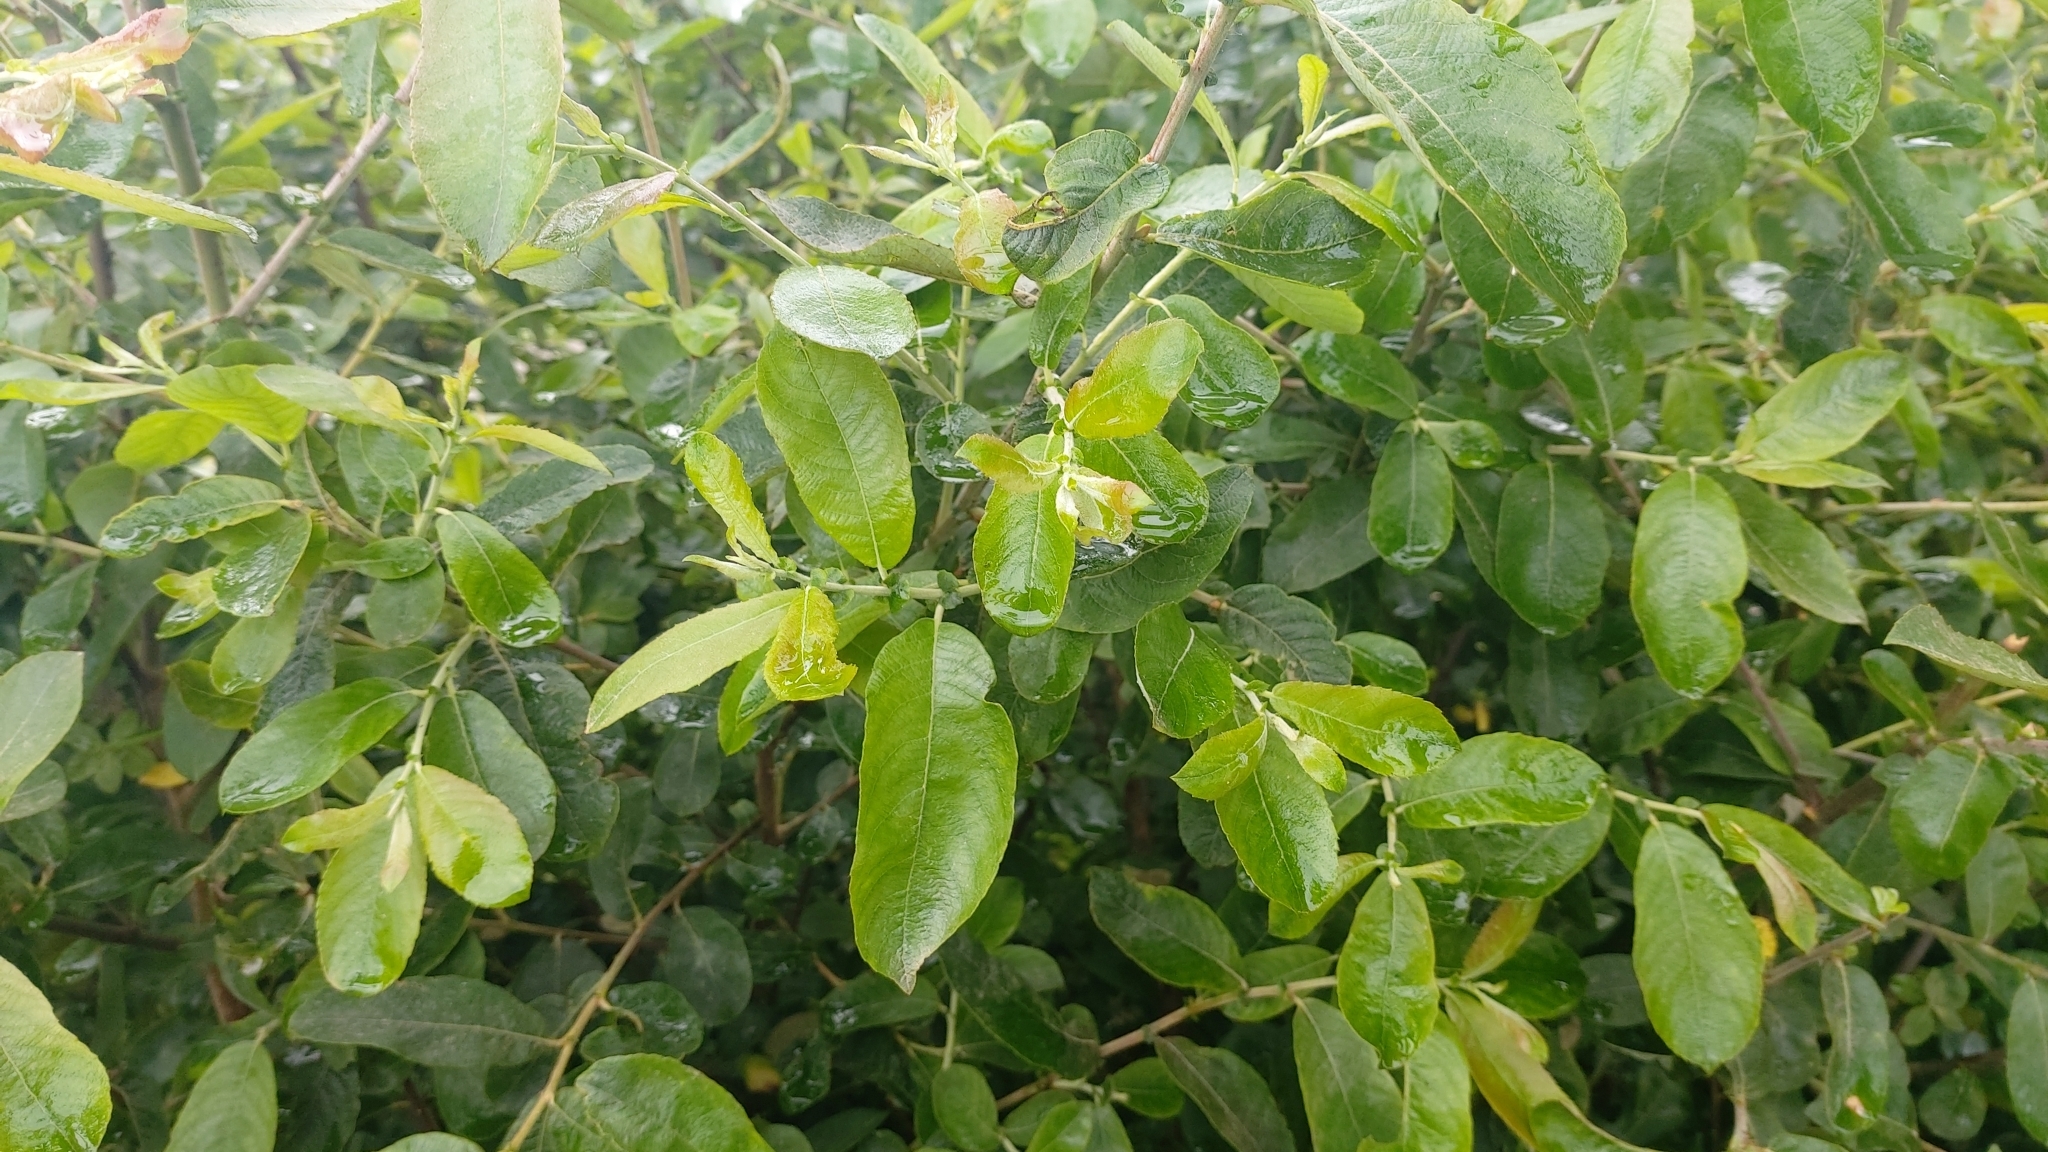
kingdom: Plantae
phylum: Tracheophyta
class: Magnoliopsida
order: Malpighiales
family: Salicaceae
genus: Salix
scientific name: Salix atrocinerea
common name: Rusty willow
